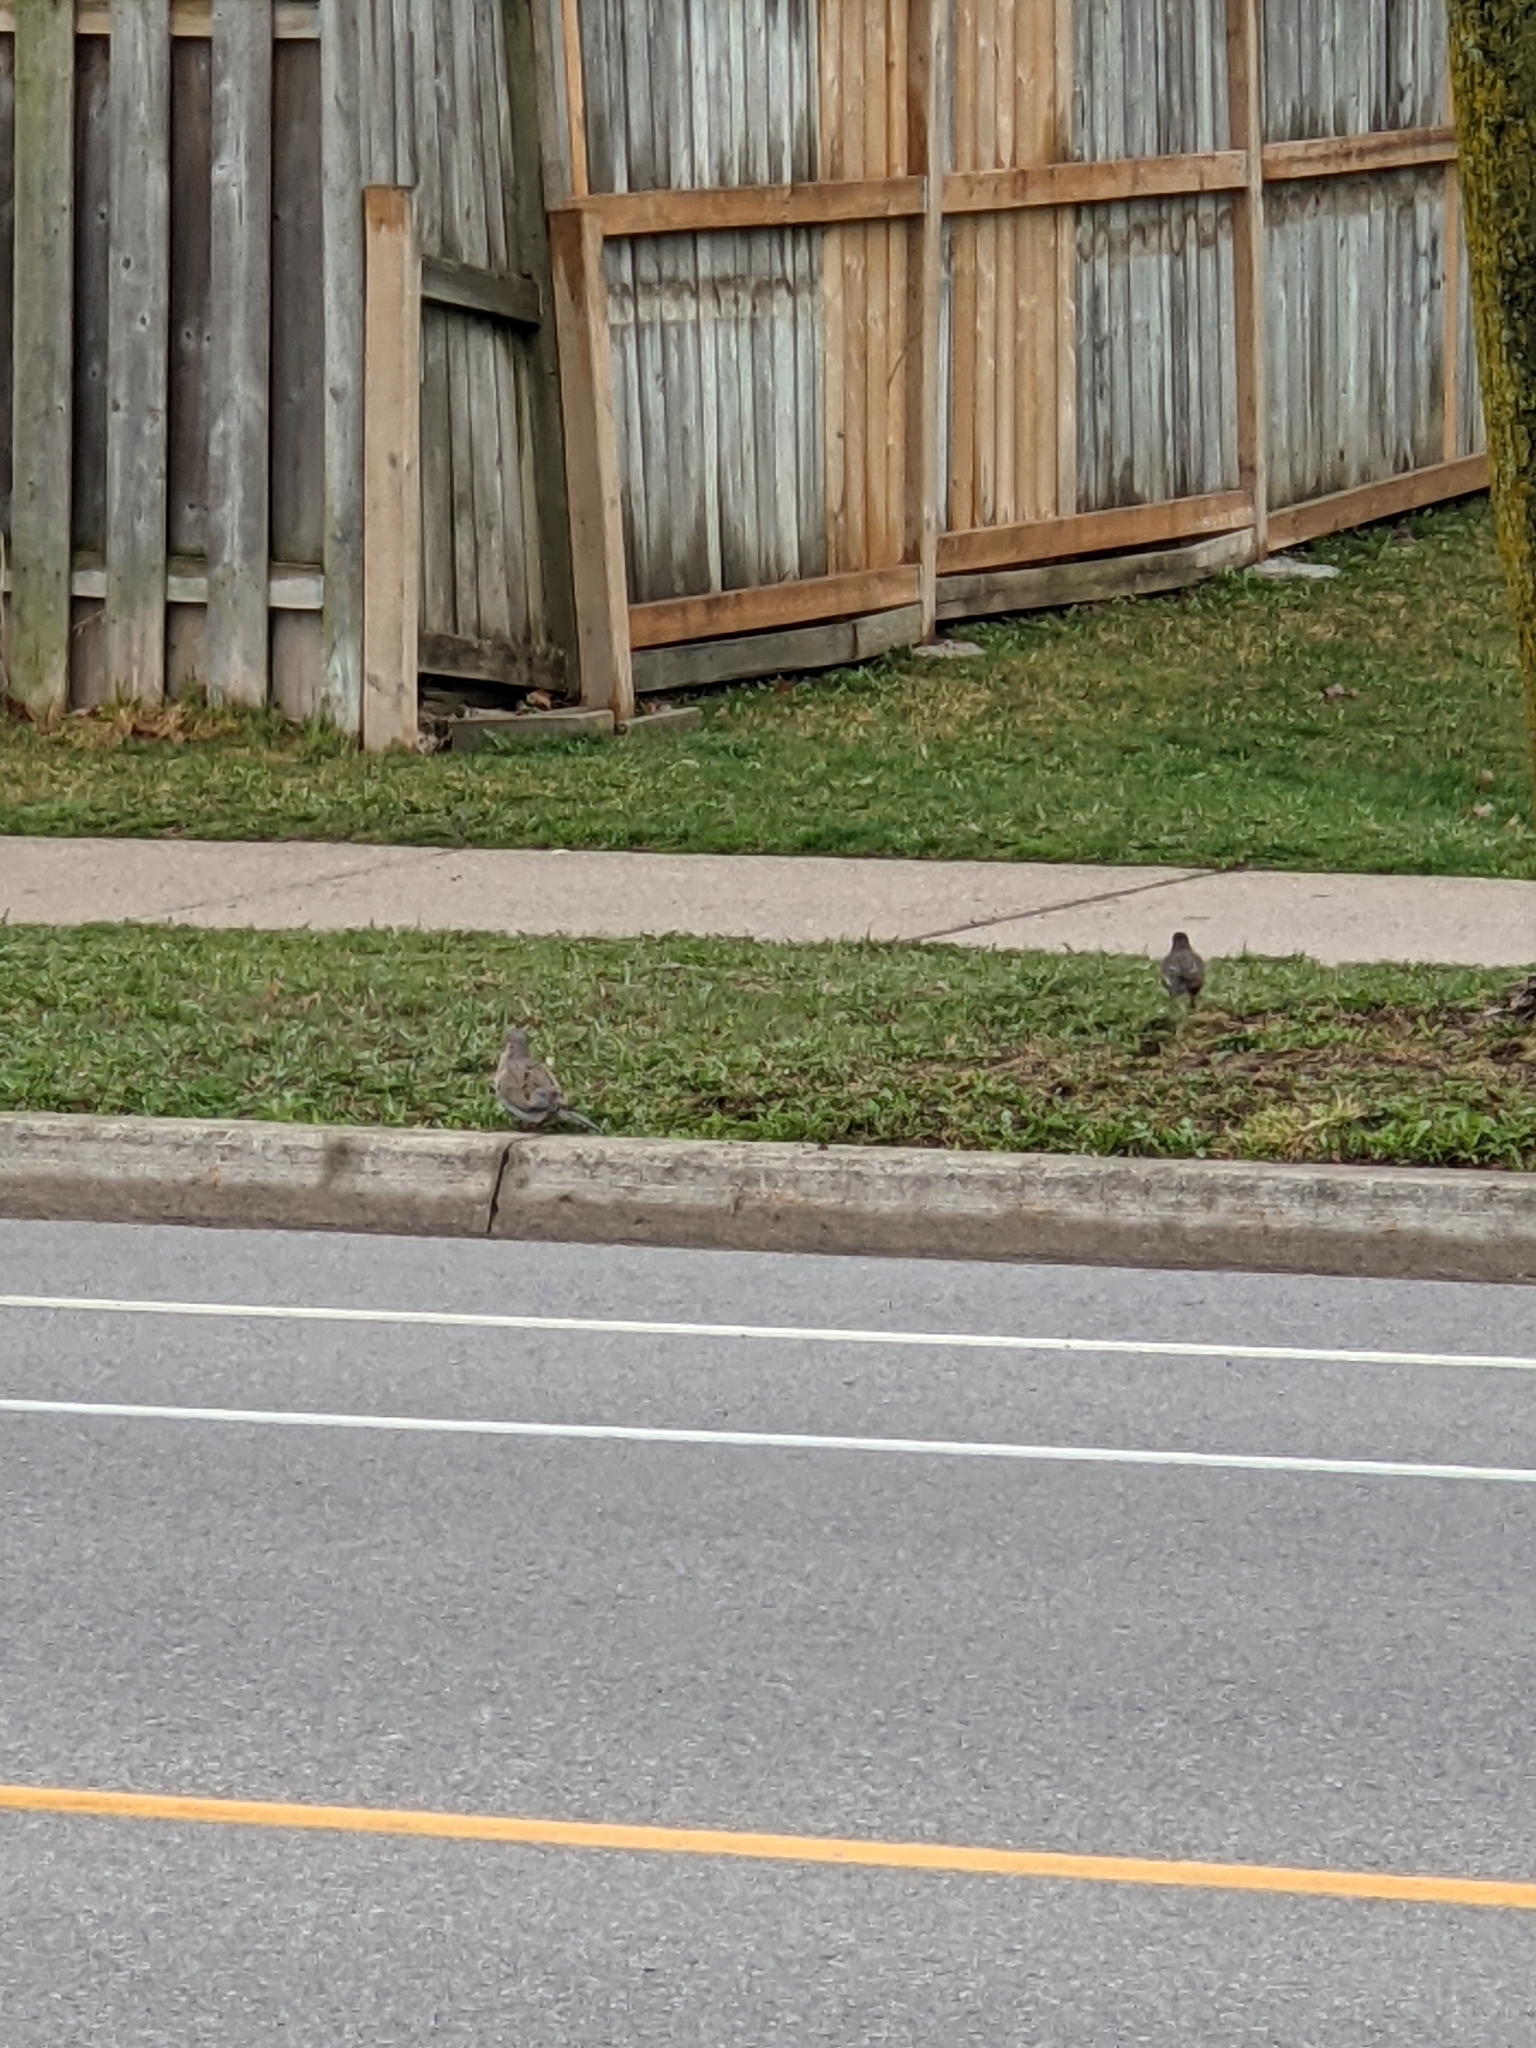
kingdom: Animalia
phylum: Chordata
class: Aves
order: Columbiformes
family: Columbidae
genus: Zenaida
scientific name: Zenaida macroura
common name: Mourning dove
